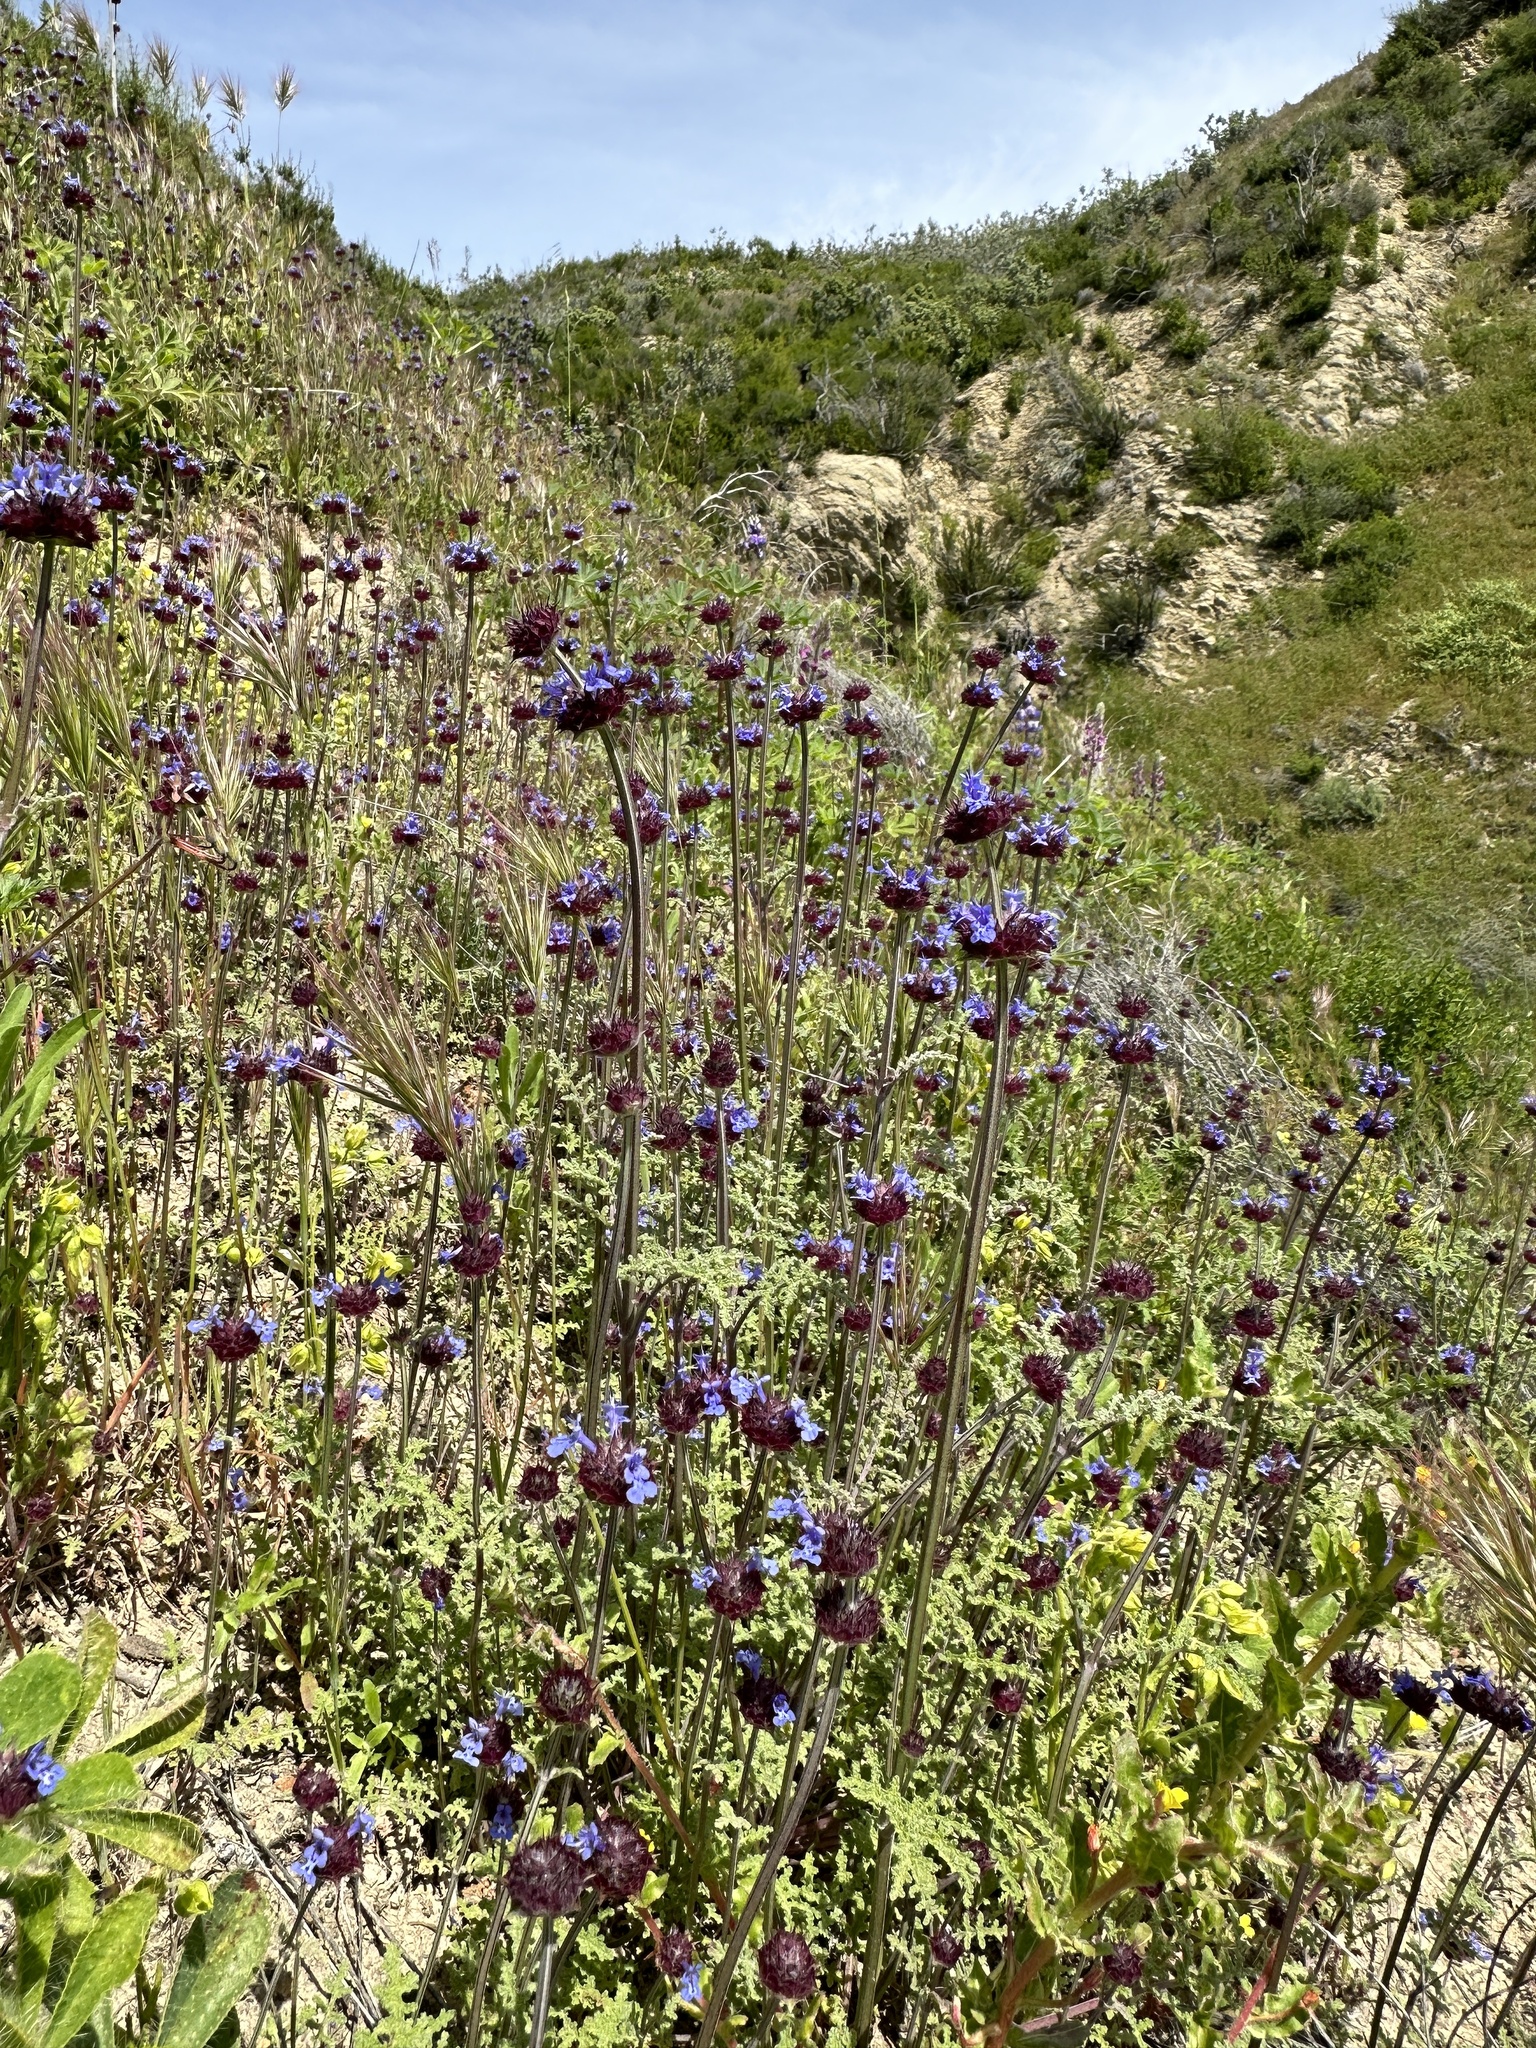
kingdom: Plantae
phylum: Tracheophyta
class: Magnoliopsida
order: Lamiales
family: Lamiaceae
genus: Salvia
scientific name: Salvia columbariae
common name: Chia
